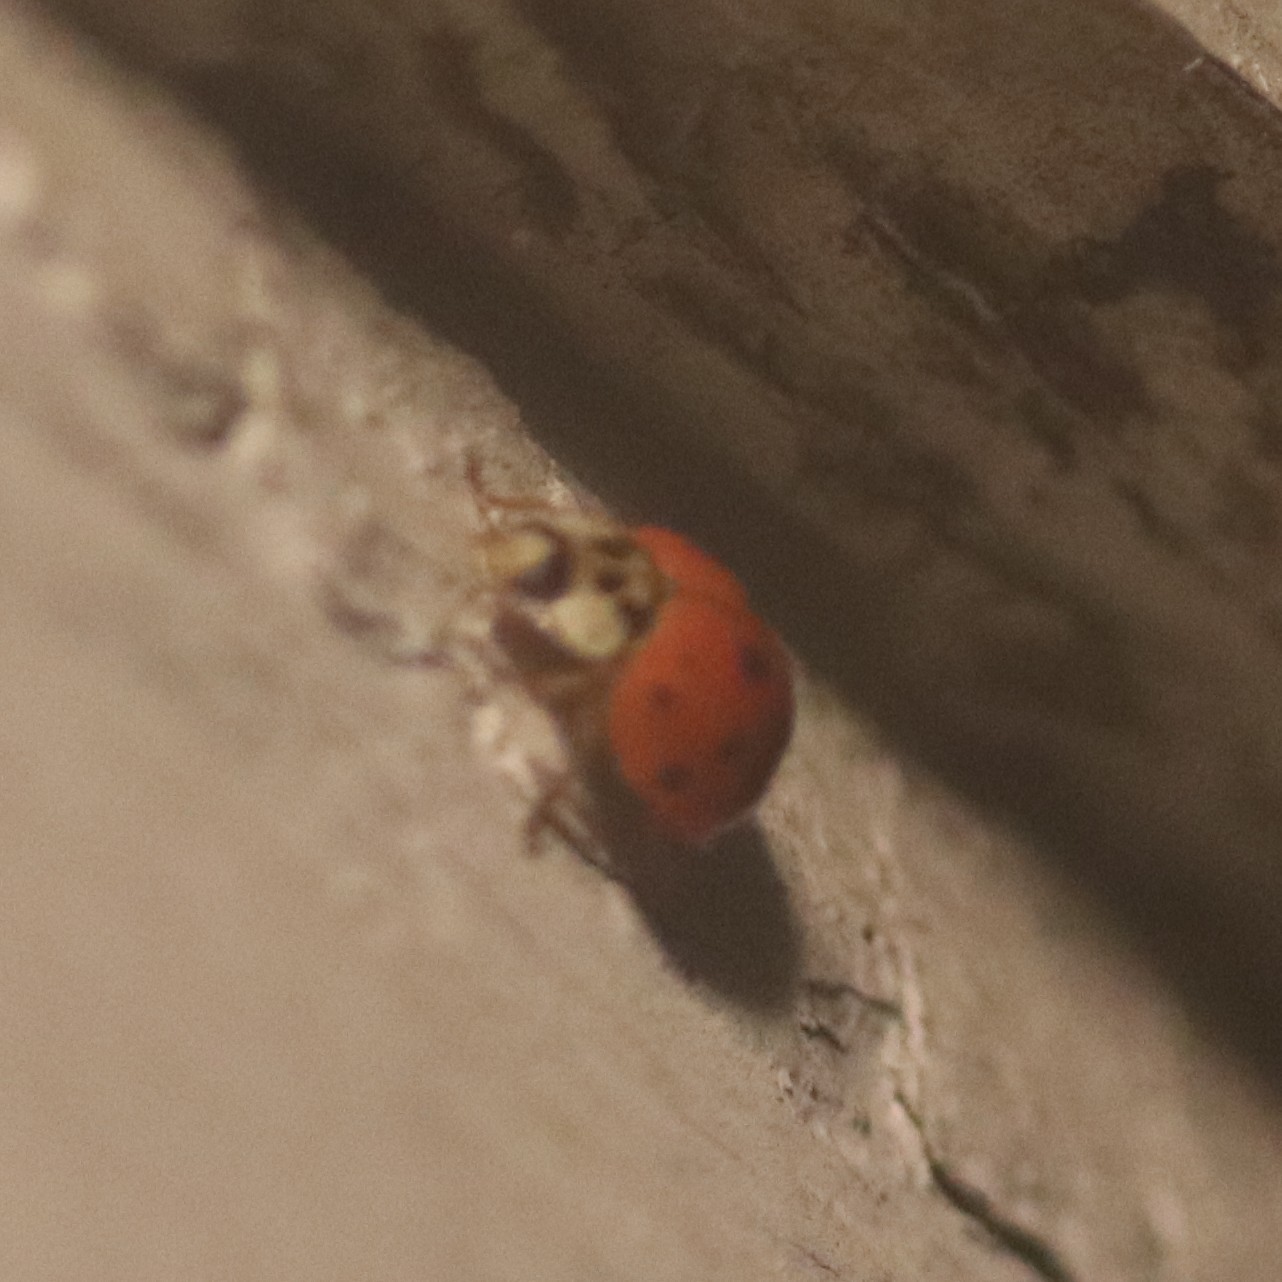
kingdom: Animalia
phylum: Arthropoda
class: Insecta
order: Coleoptera
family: Coccinellidae
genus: Harmonia
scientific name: Harmonia axyridis
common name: Harlequin ladybird
